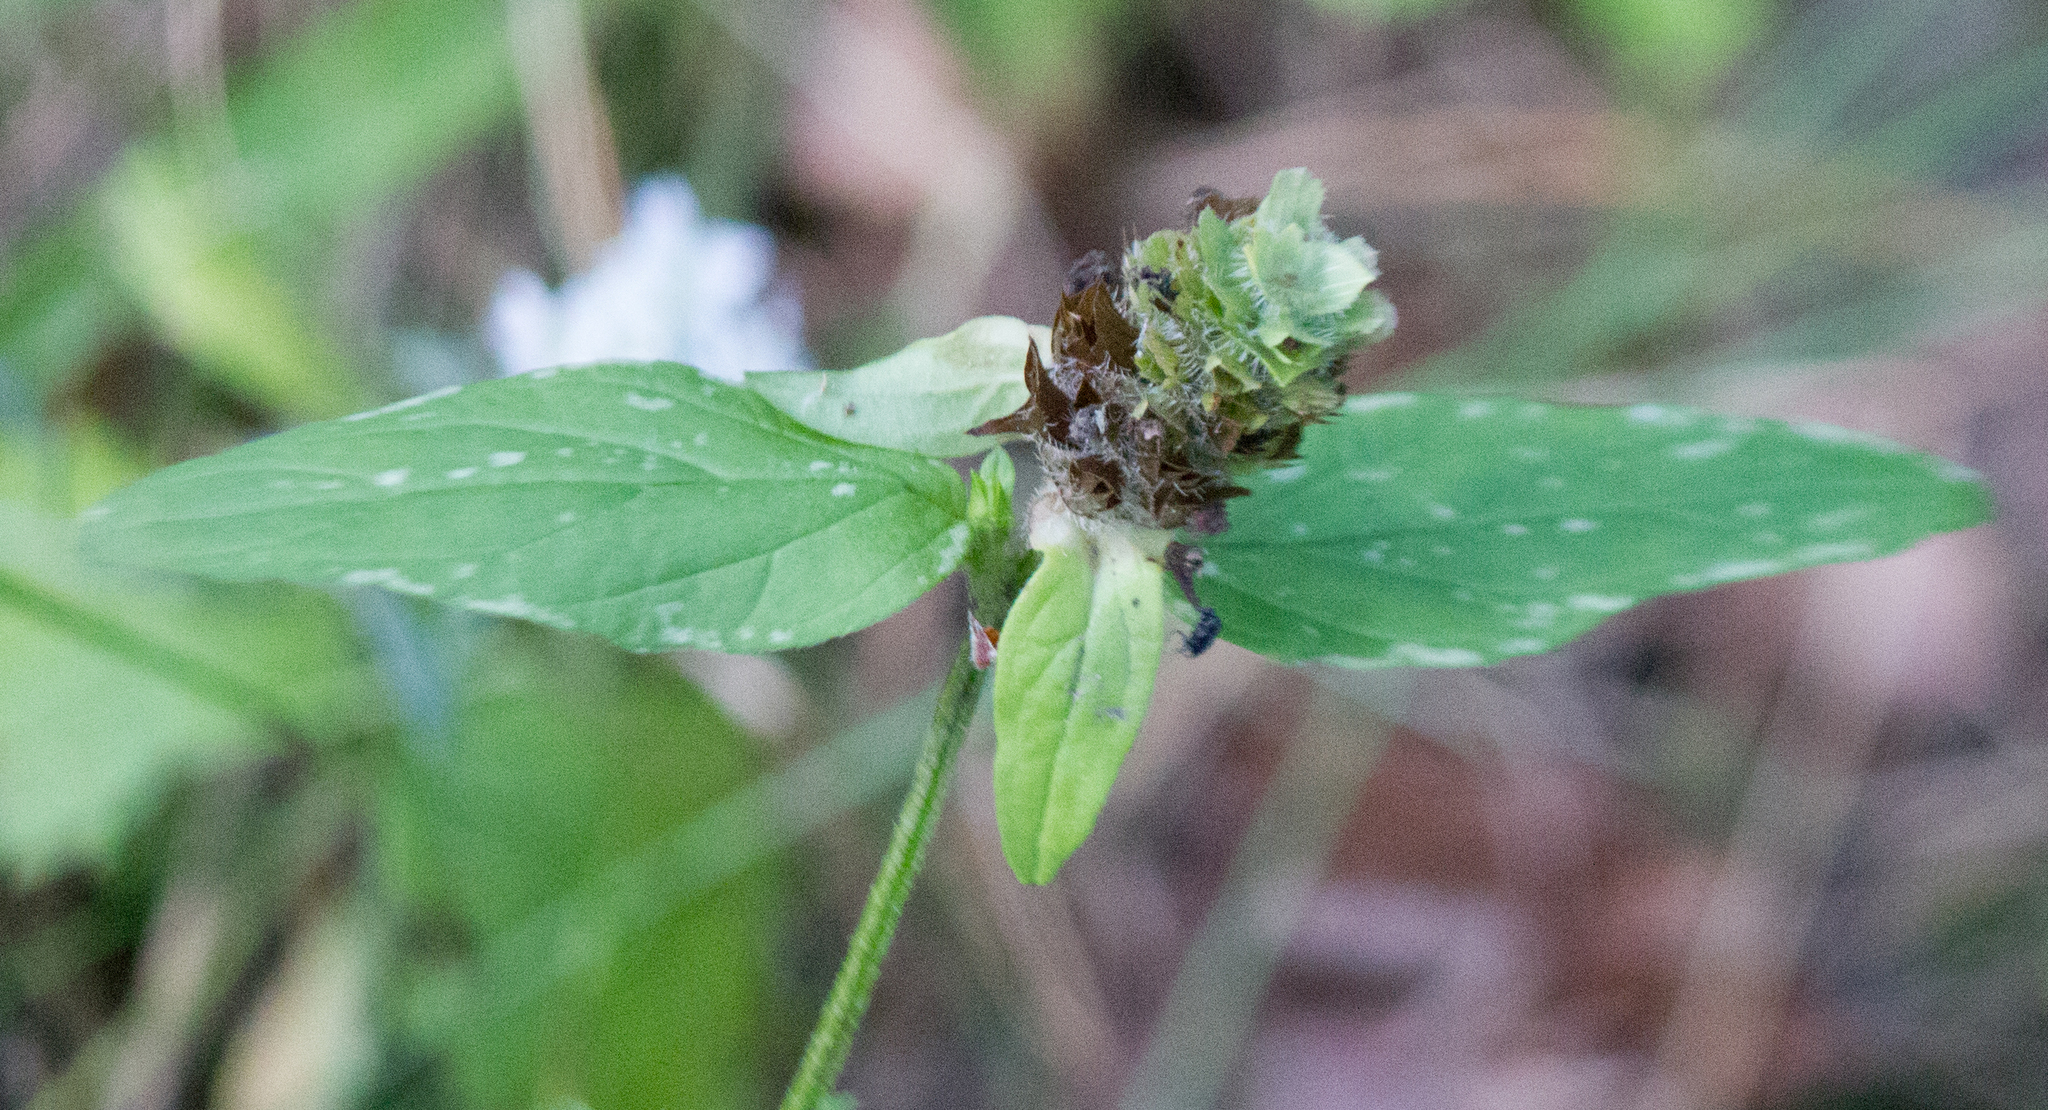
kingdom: Plantae
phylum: Tracheophyta
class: Magnoliopsida
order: Lamiales
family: Lamiaceae
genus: Prunella
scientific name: Prunella vulgaris
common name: Heal-all
